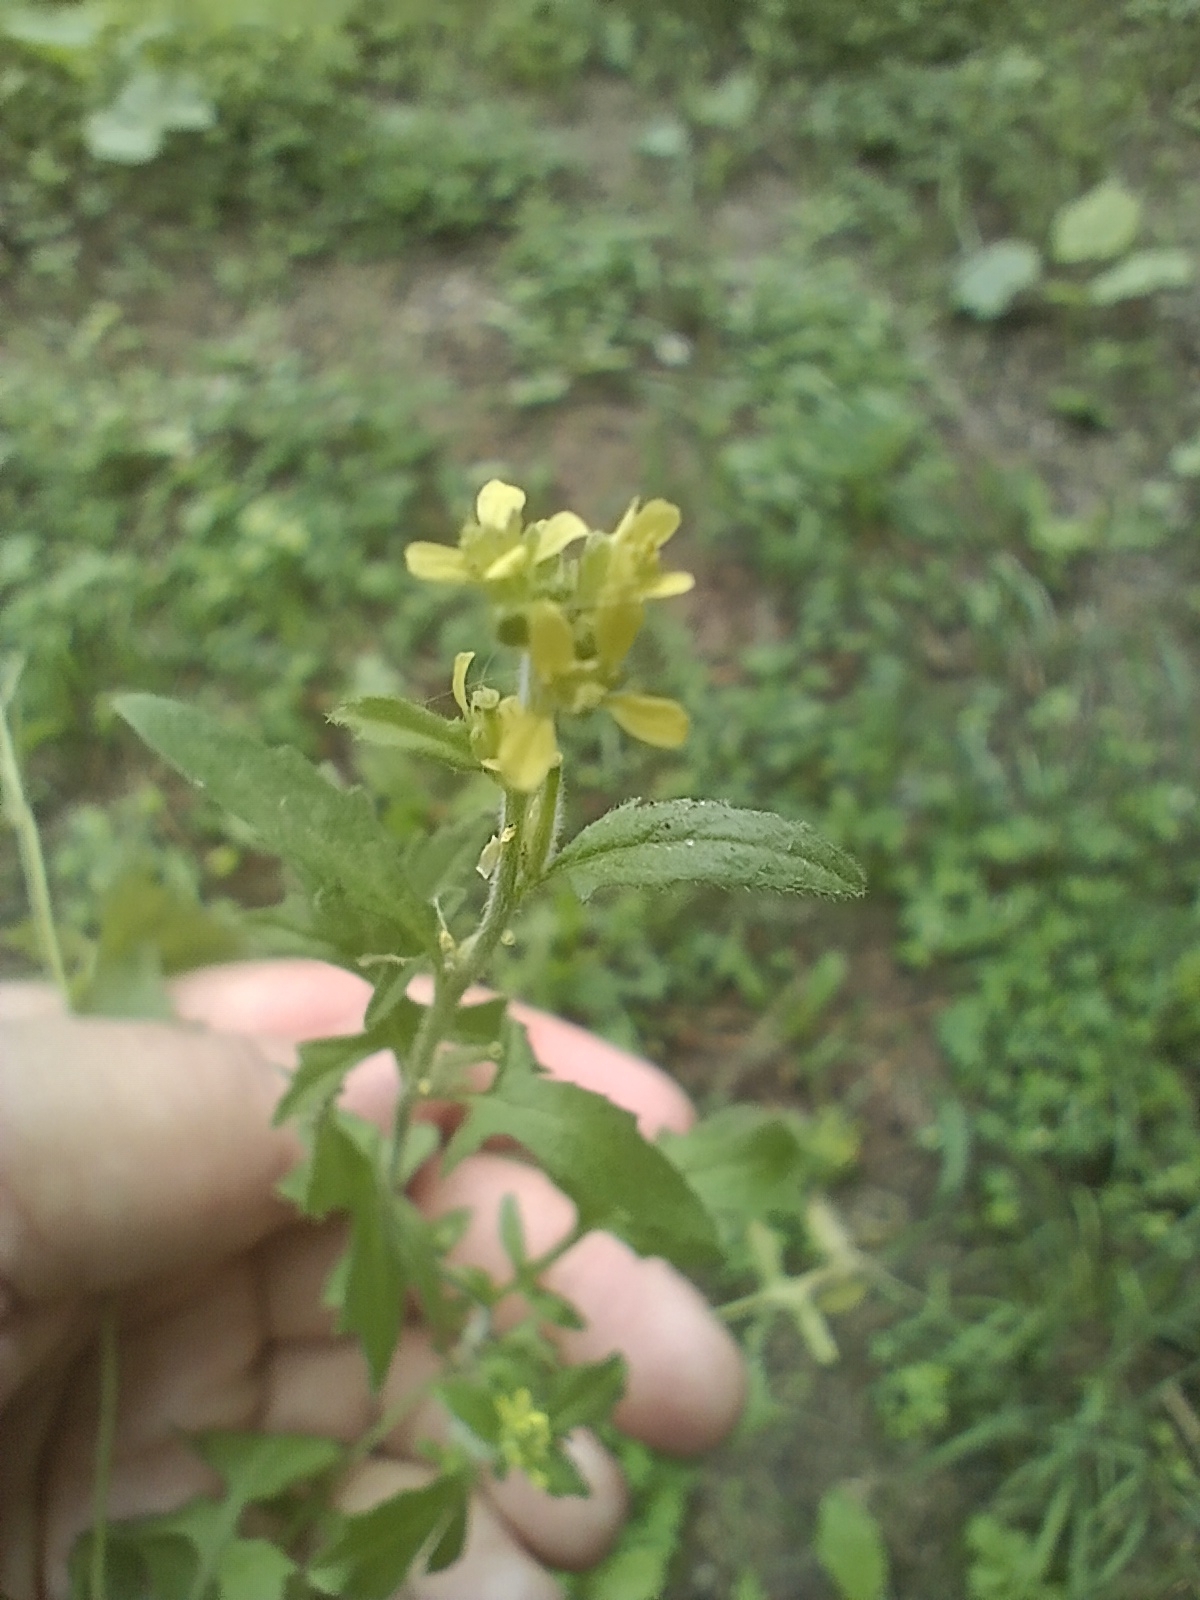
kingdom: Plantae
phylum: Tracheophyta
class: Magnoliopsida
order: Brassicales
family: Brassicaceae
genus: Sisymbrium
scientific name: Sisymbrium officinale
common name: Hedge mustard
